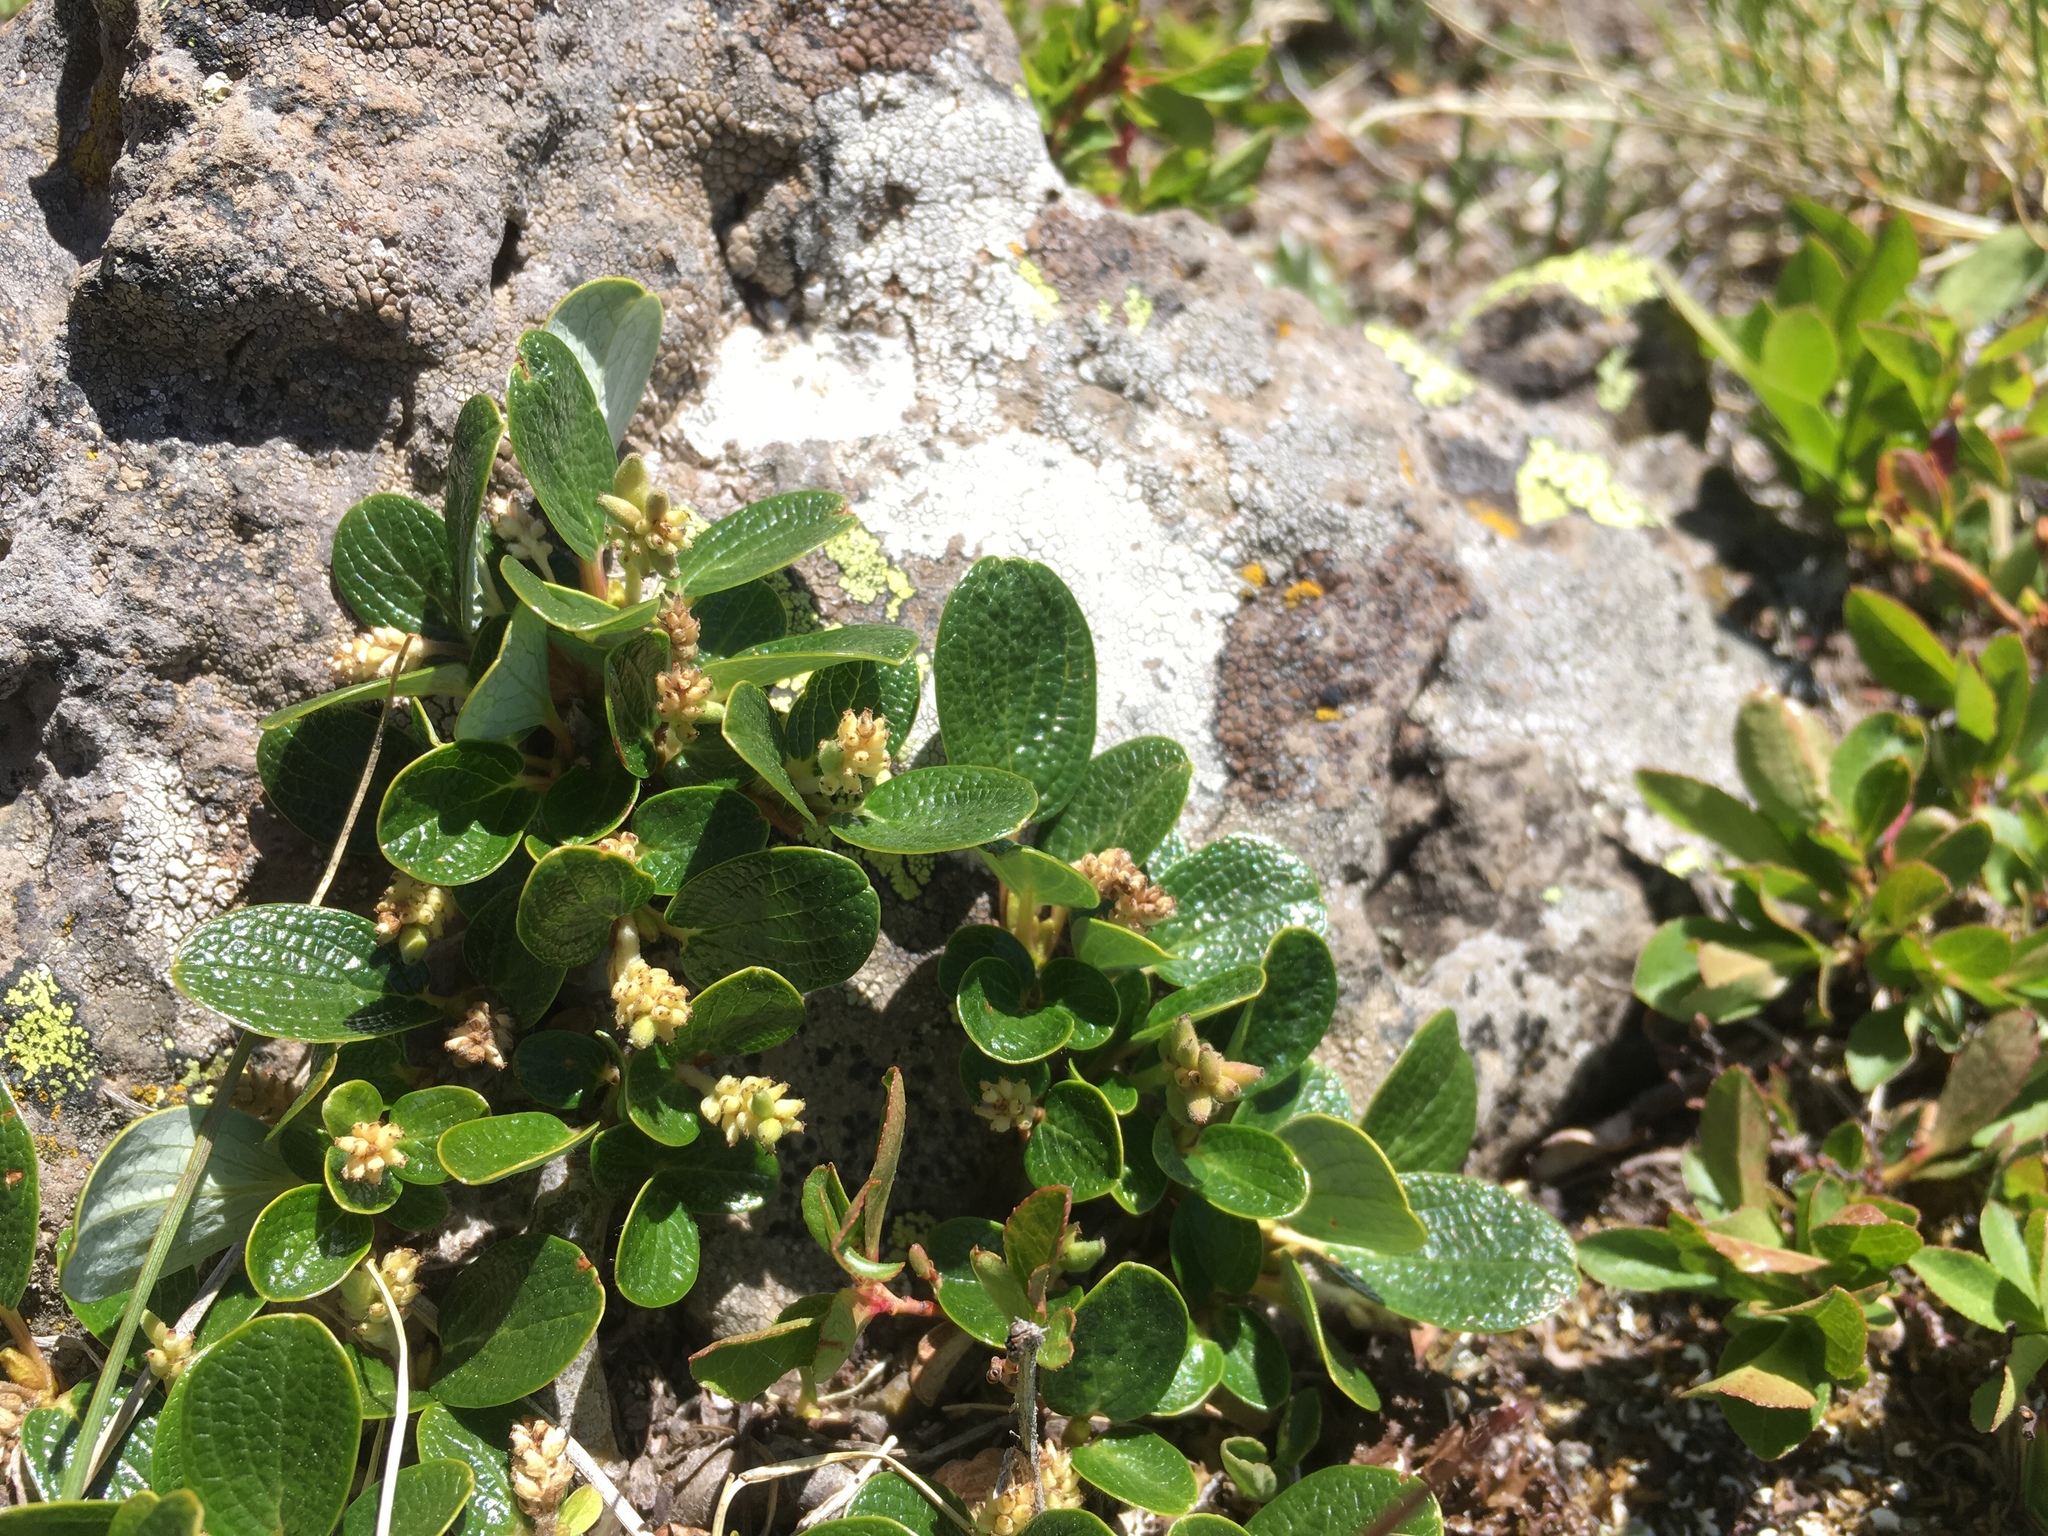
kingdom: Plantae
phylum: Tracheophyta
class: Magnoliopsida
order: Malpighiales
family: Salicaceae
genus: Salix
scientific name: Salix nivalis
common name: Dwarf snow willow
